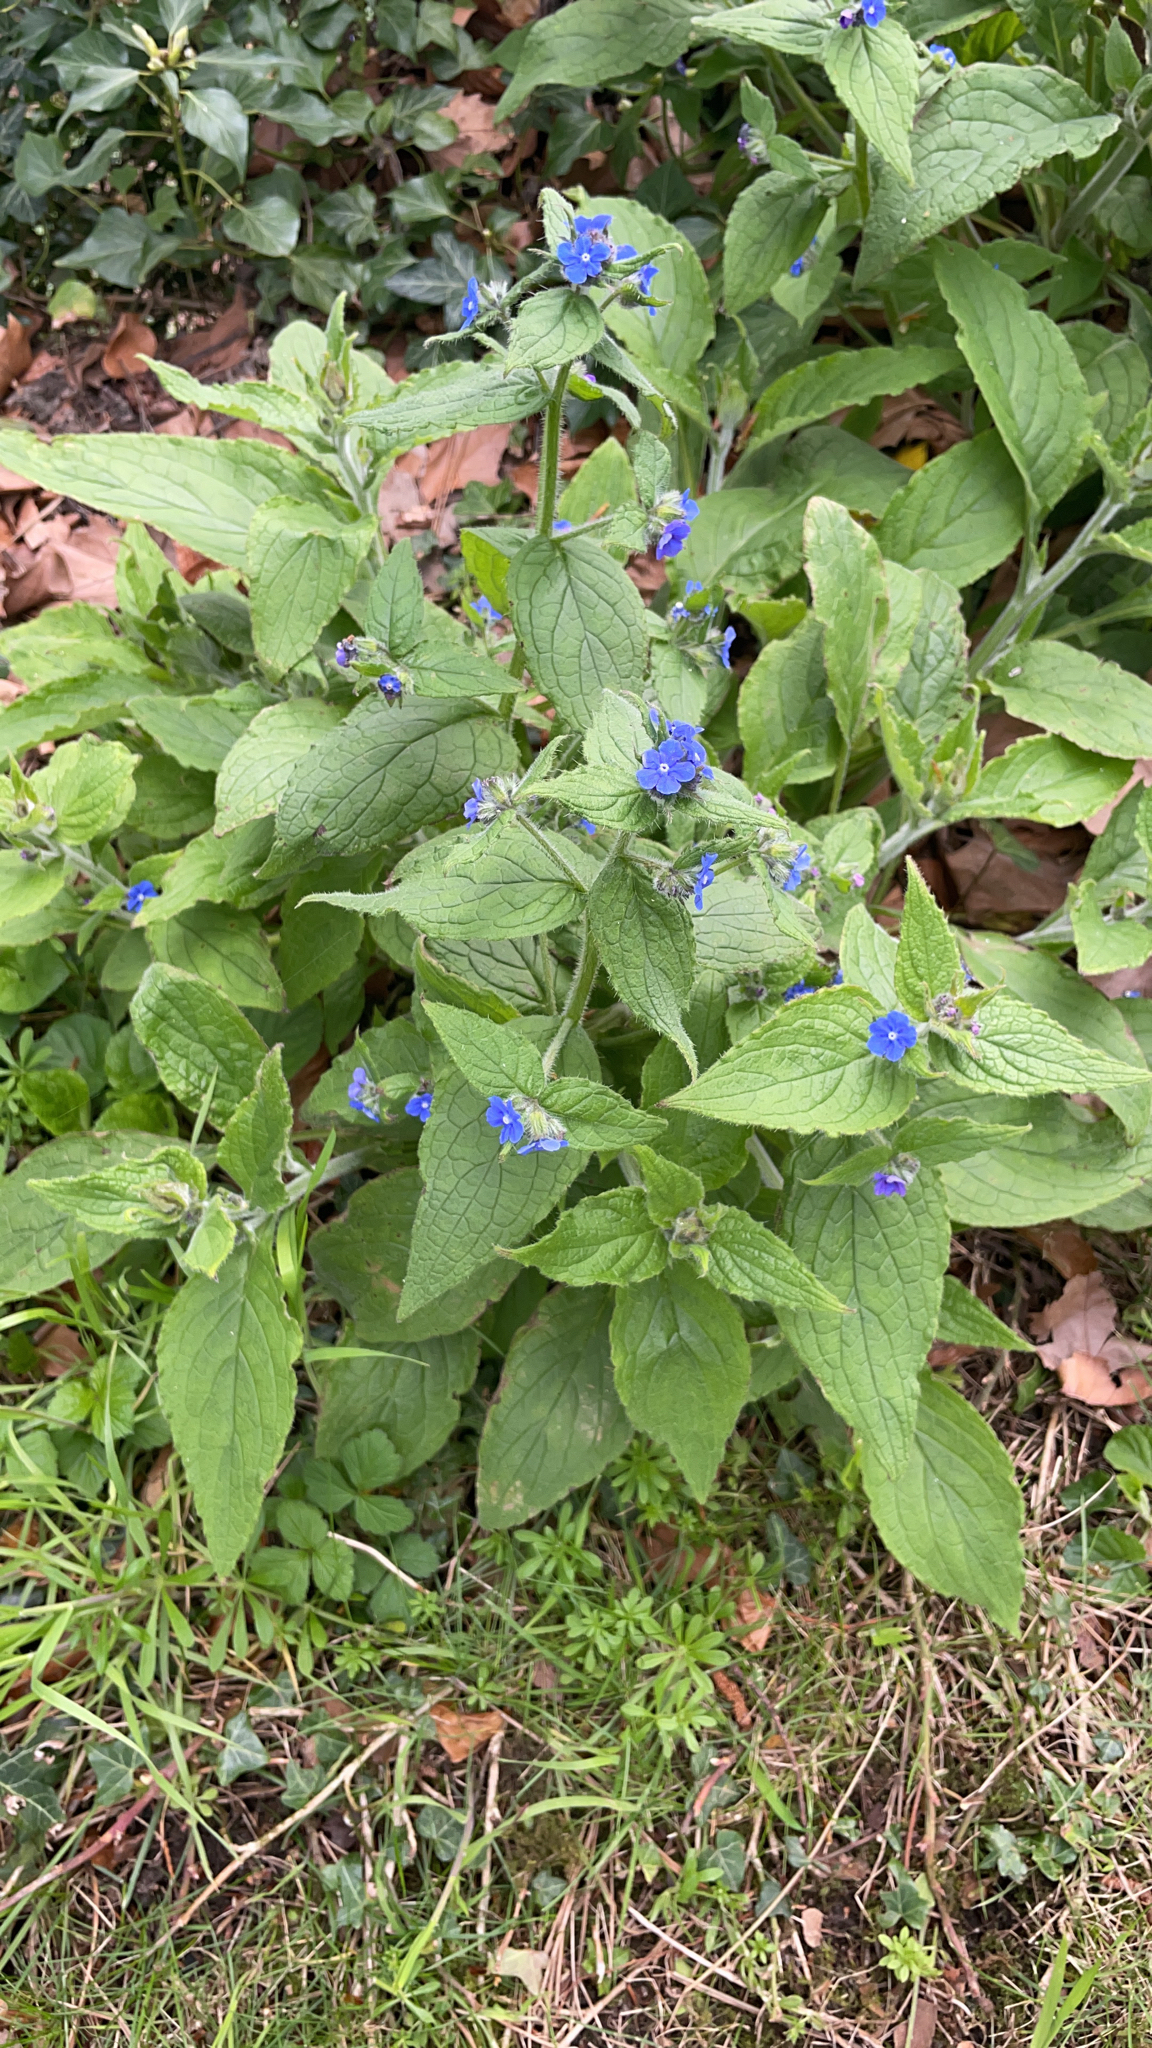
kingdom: Plantae
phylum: Tracheophyta
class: Magnoliopsida
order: Boraginales
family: Boraginaceae
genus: Pentaglottis
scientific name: Pentaglottis sempervirens
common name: Green alkanet
